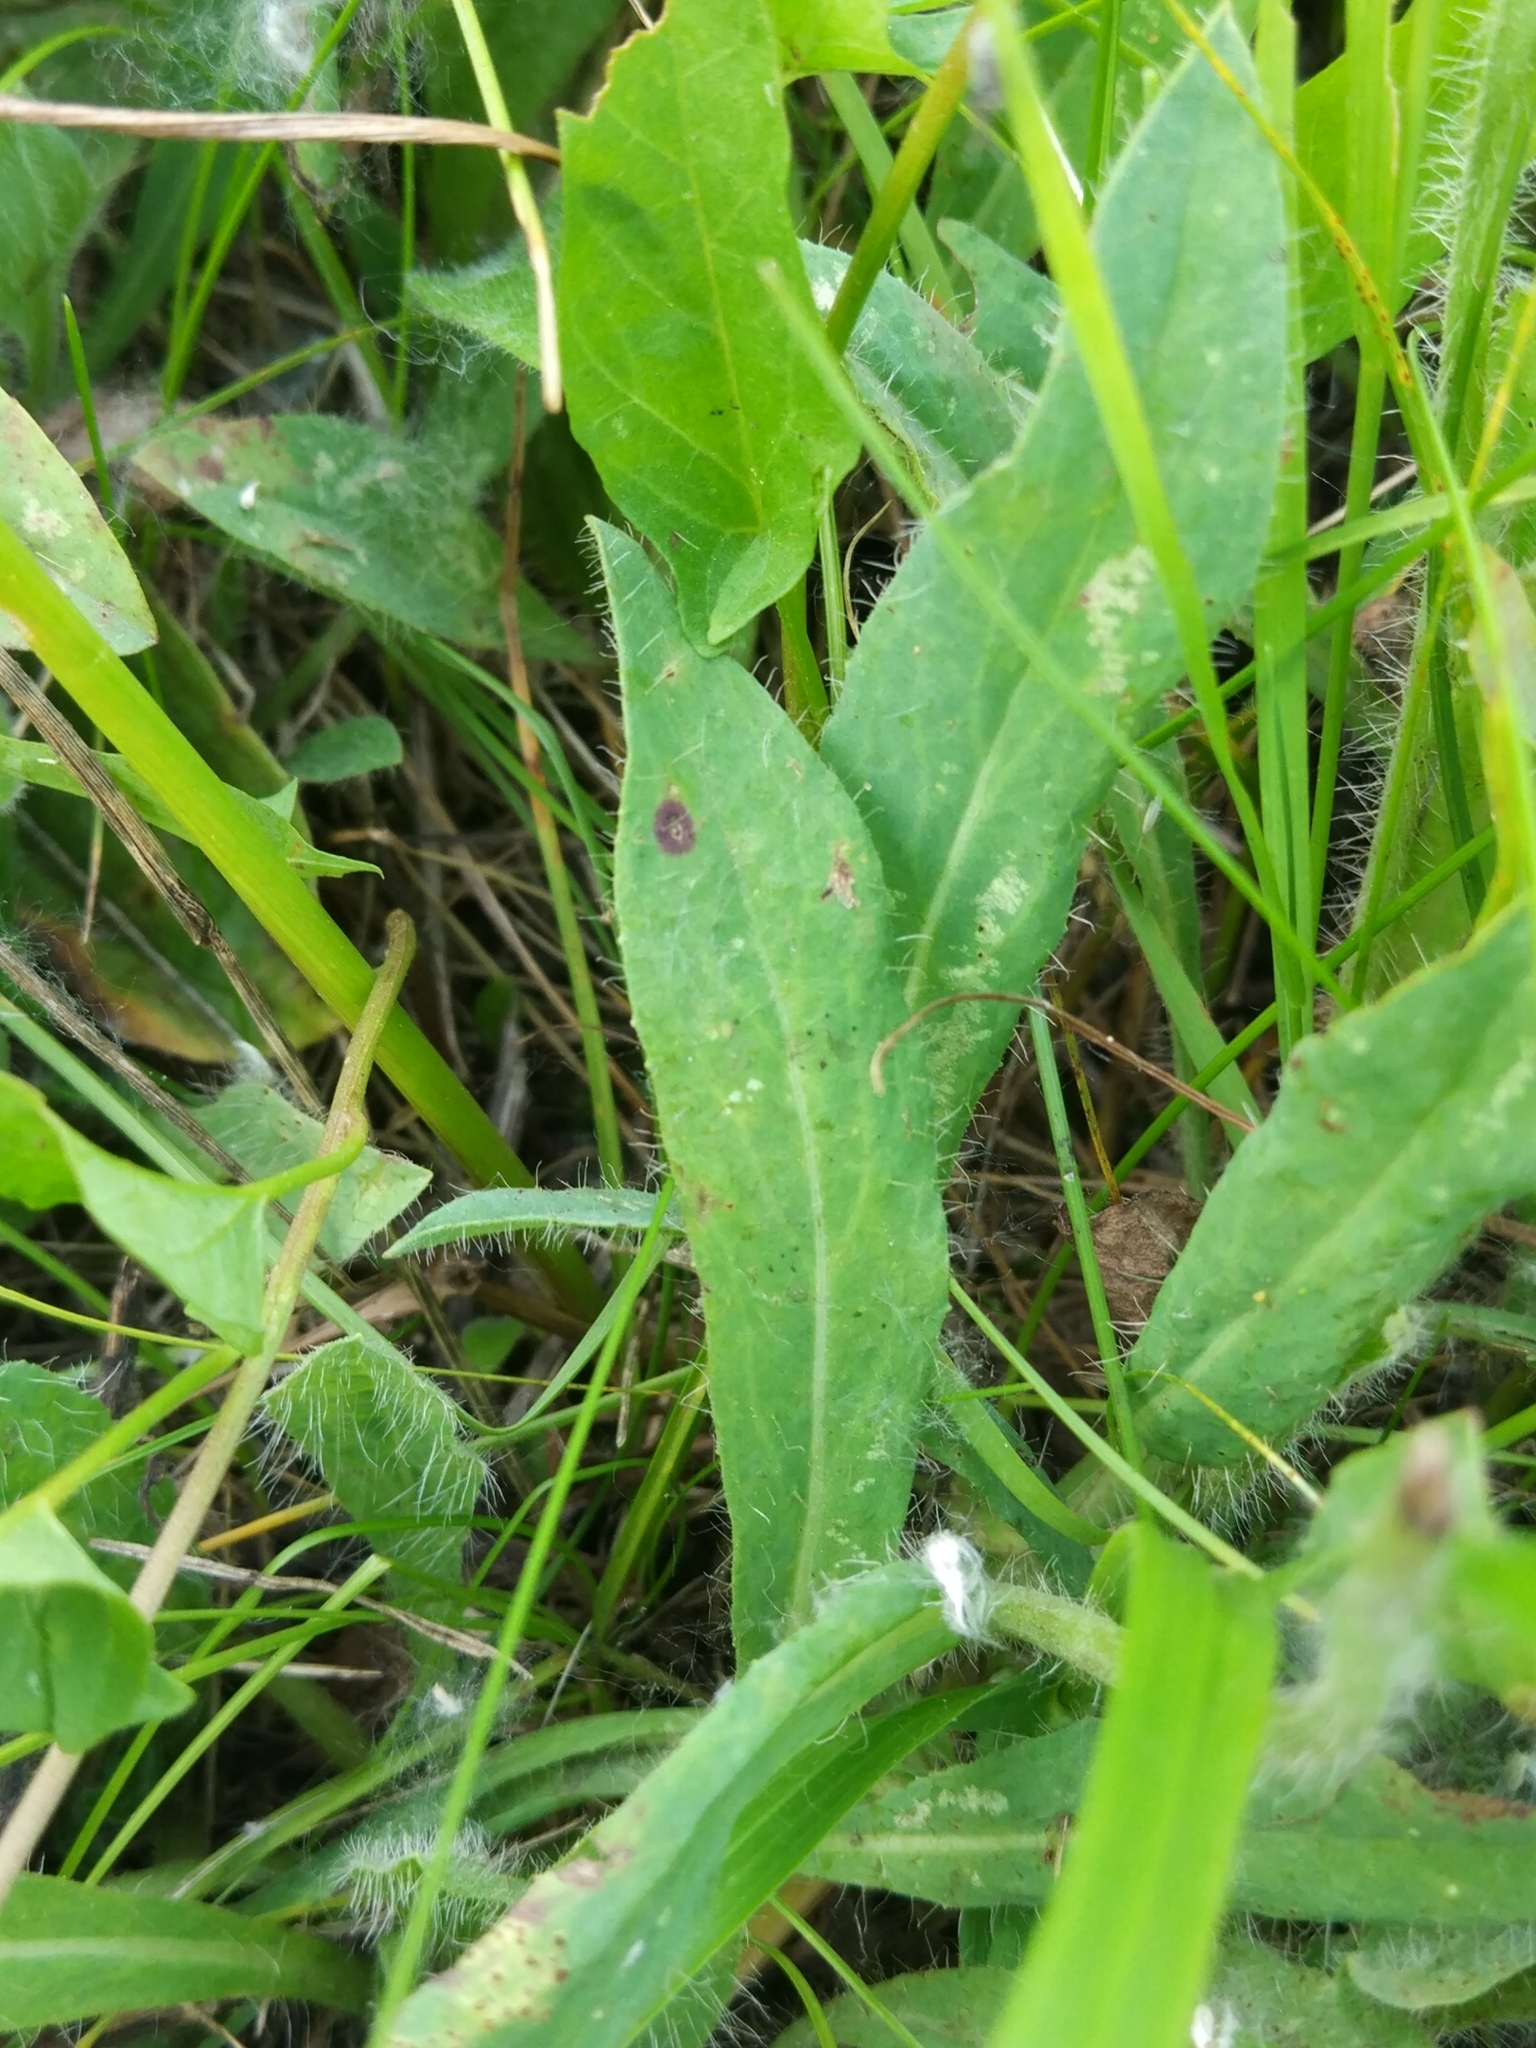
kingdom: Plantae
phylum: Tracheophyta
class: Magnoliopsida
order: Asterales
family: Asteraceae
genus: Pilosella
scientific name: Pilosella
